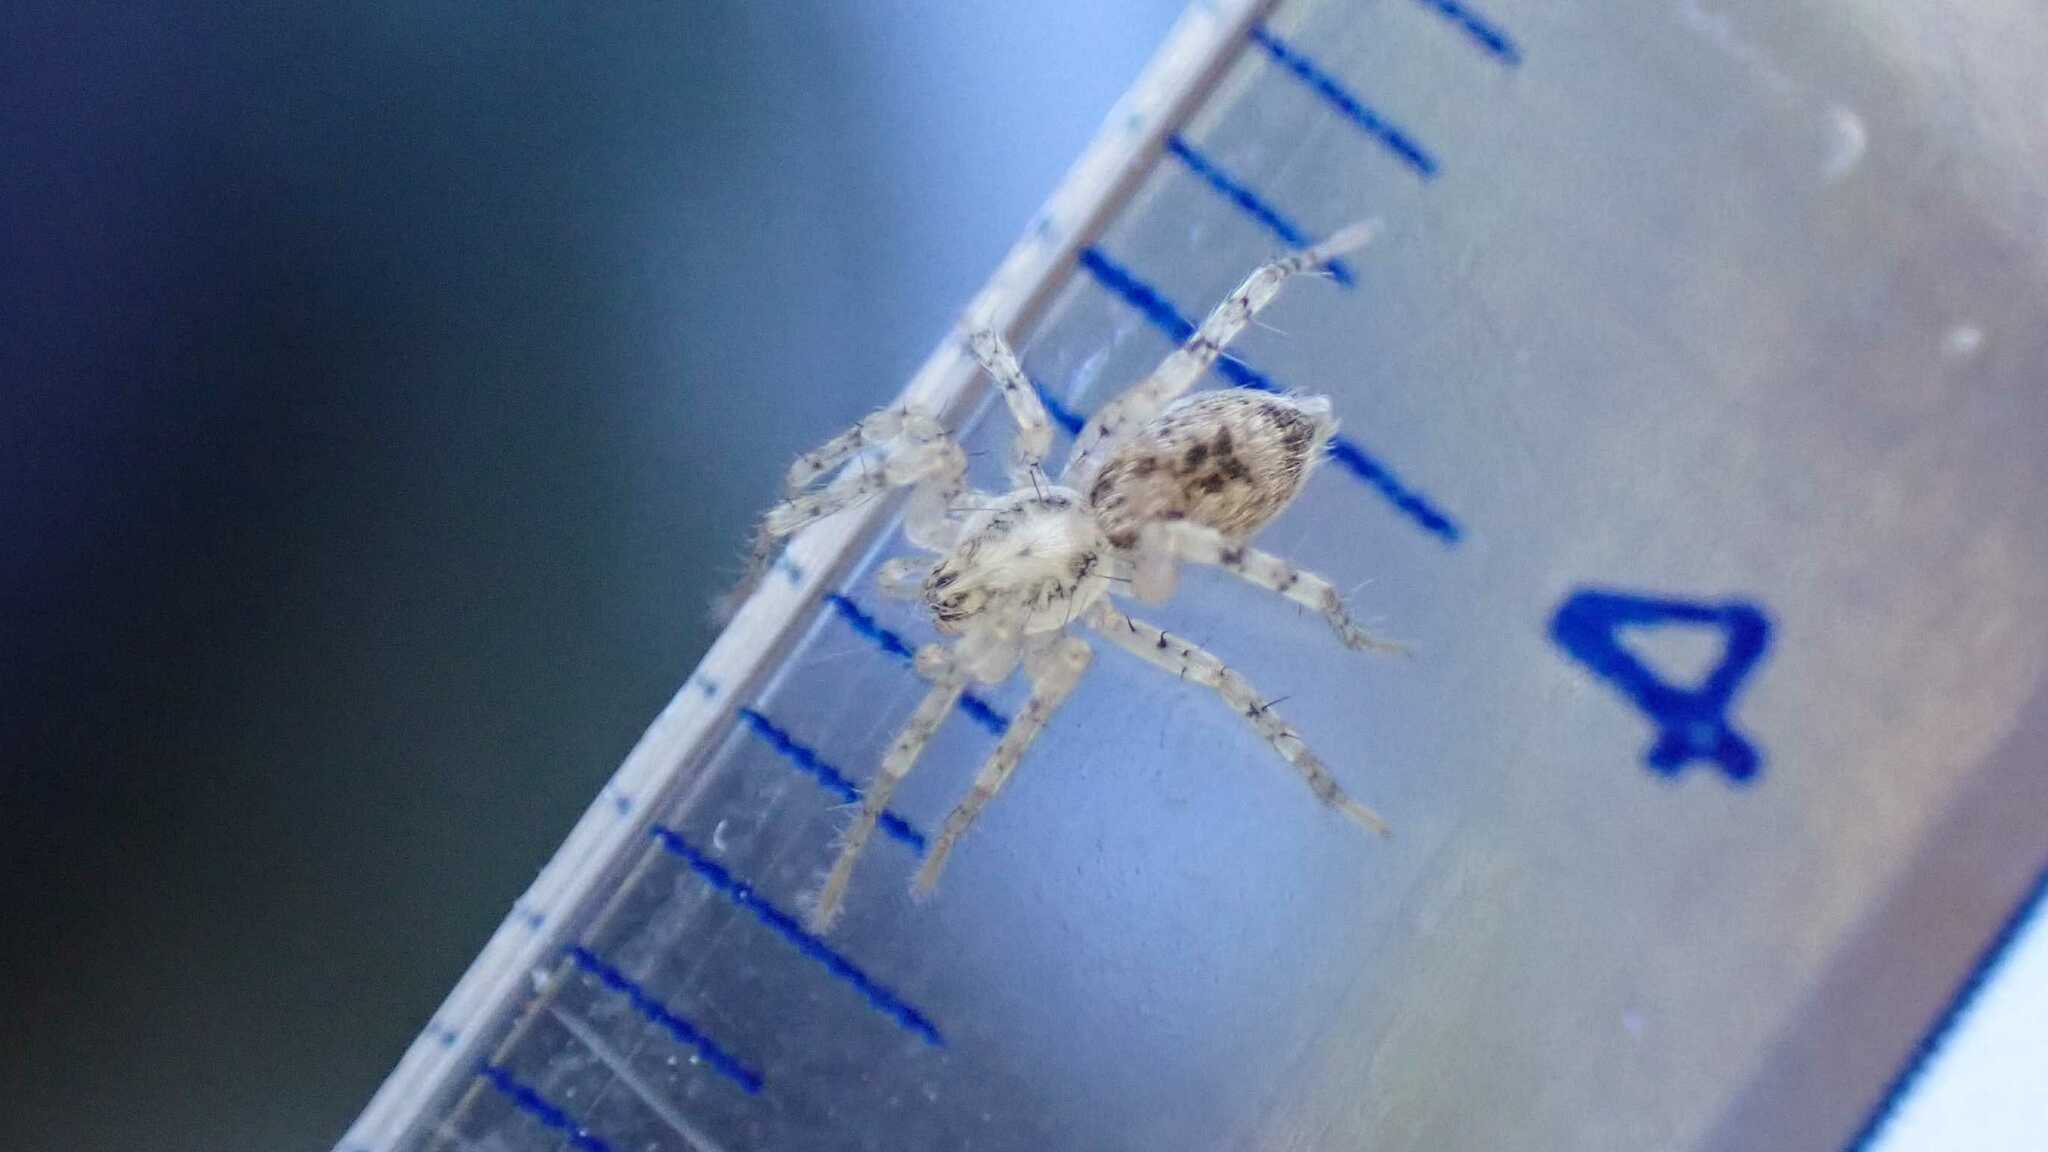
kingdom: Animalia
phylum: Arthropoda
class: Arachnida
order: Araneae
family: Anyphaenidae
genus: Anyphaena
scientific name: Anyphaena accentuata
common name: Buzzing spider
